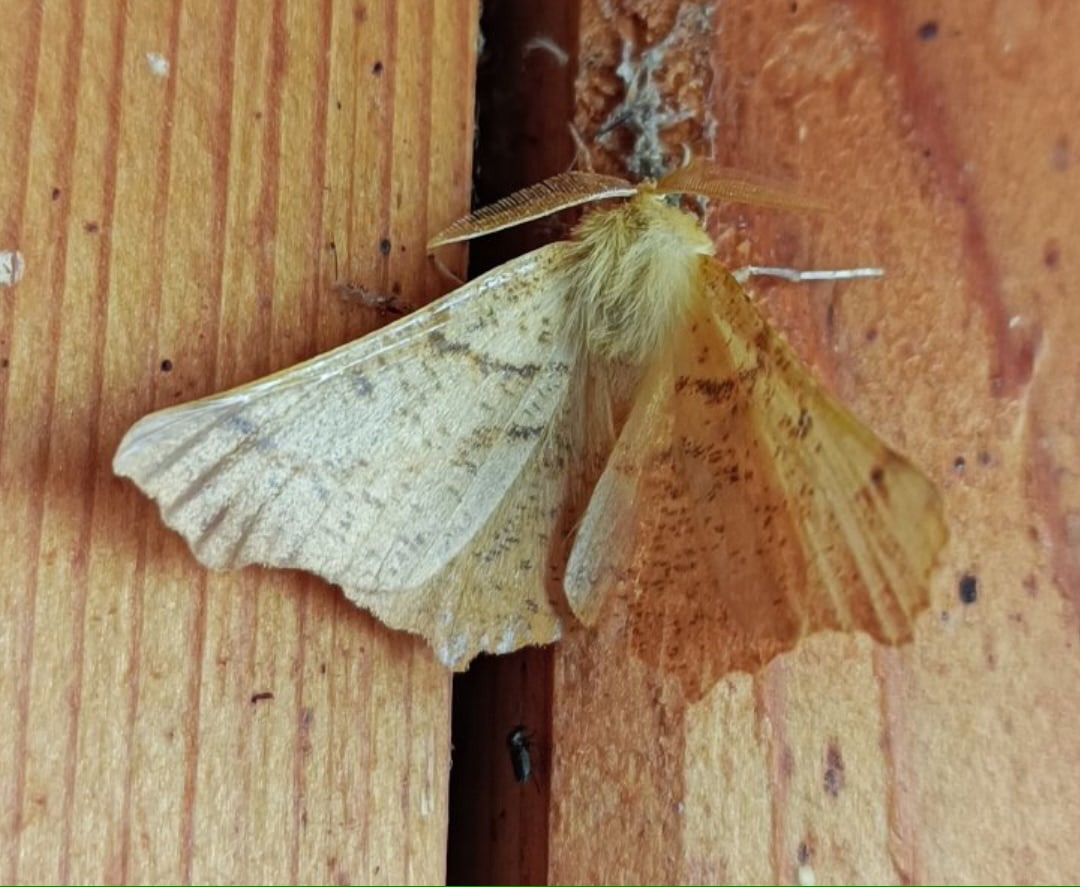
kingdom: Animalia
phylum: Arthropoda
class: Insecta
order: Lepidoptera
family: Geometridae
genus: Ennomos
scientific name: Ennomos autumnaria
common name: Large thorn
